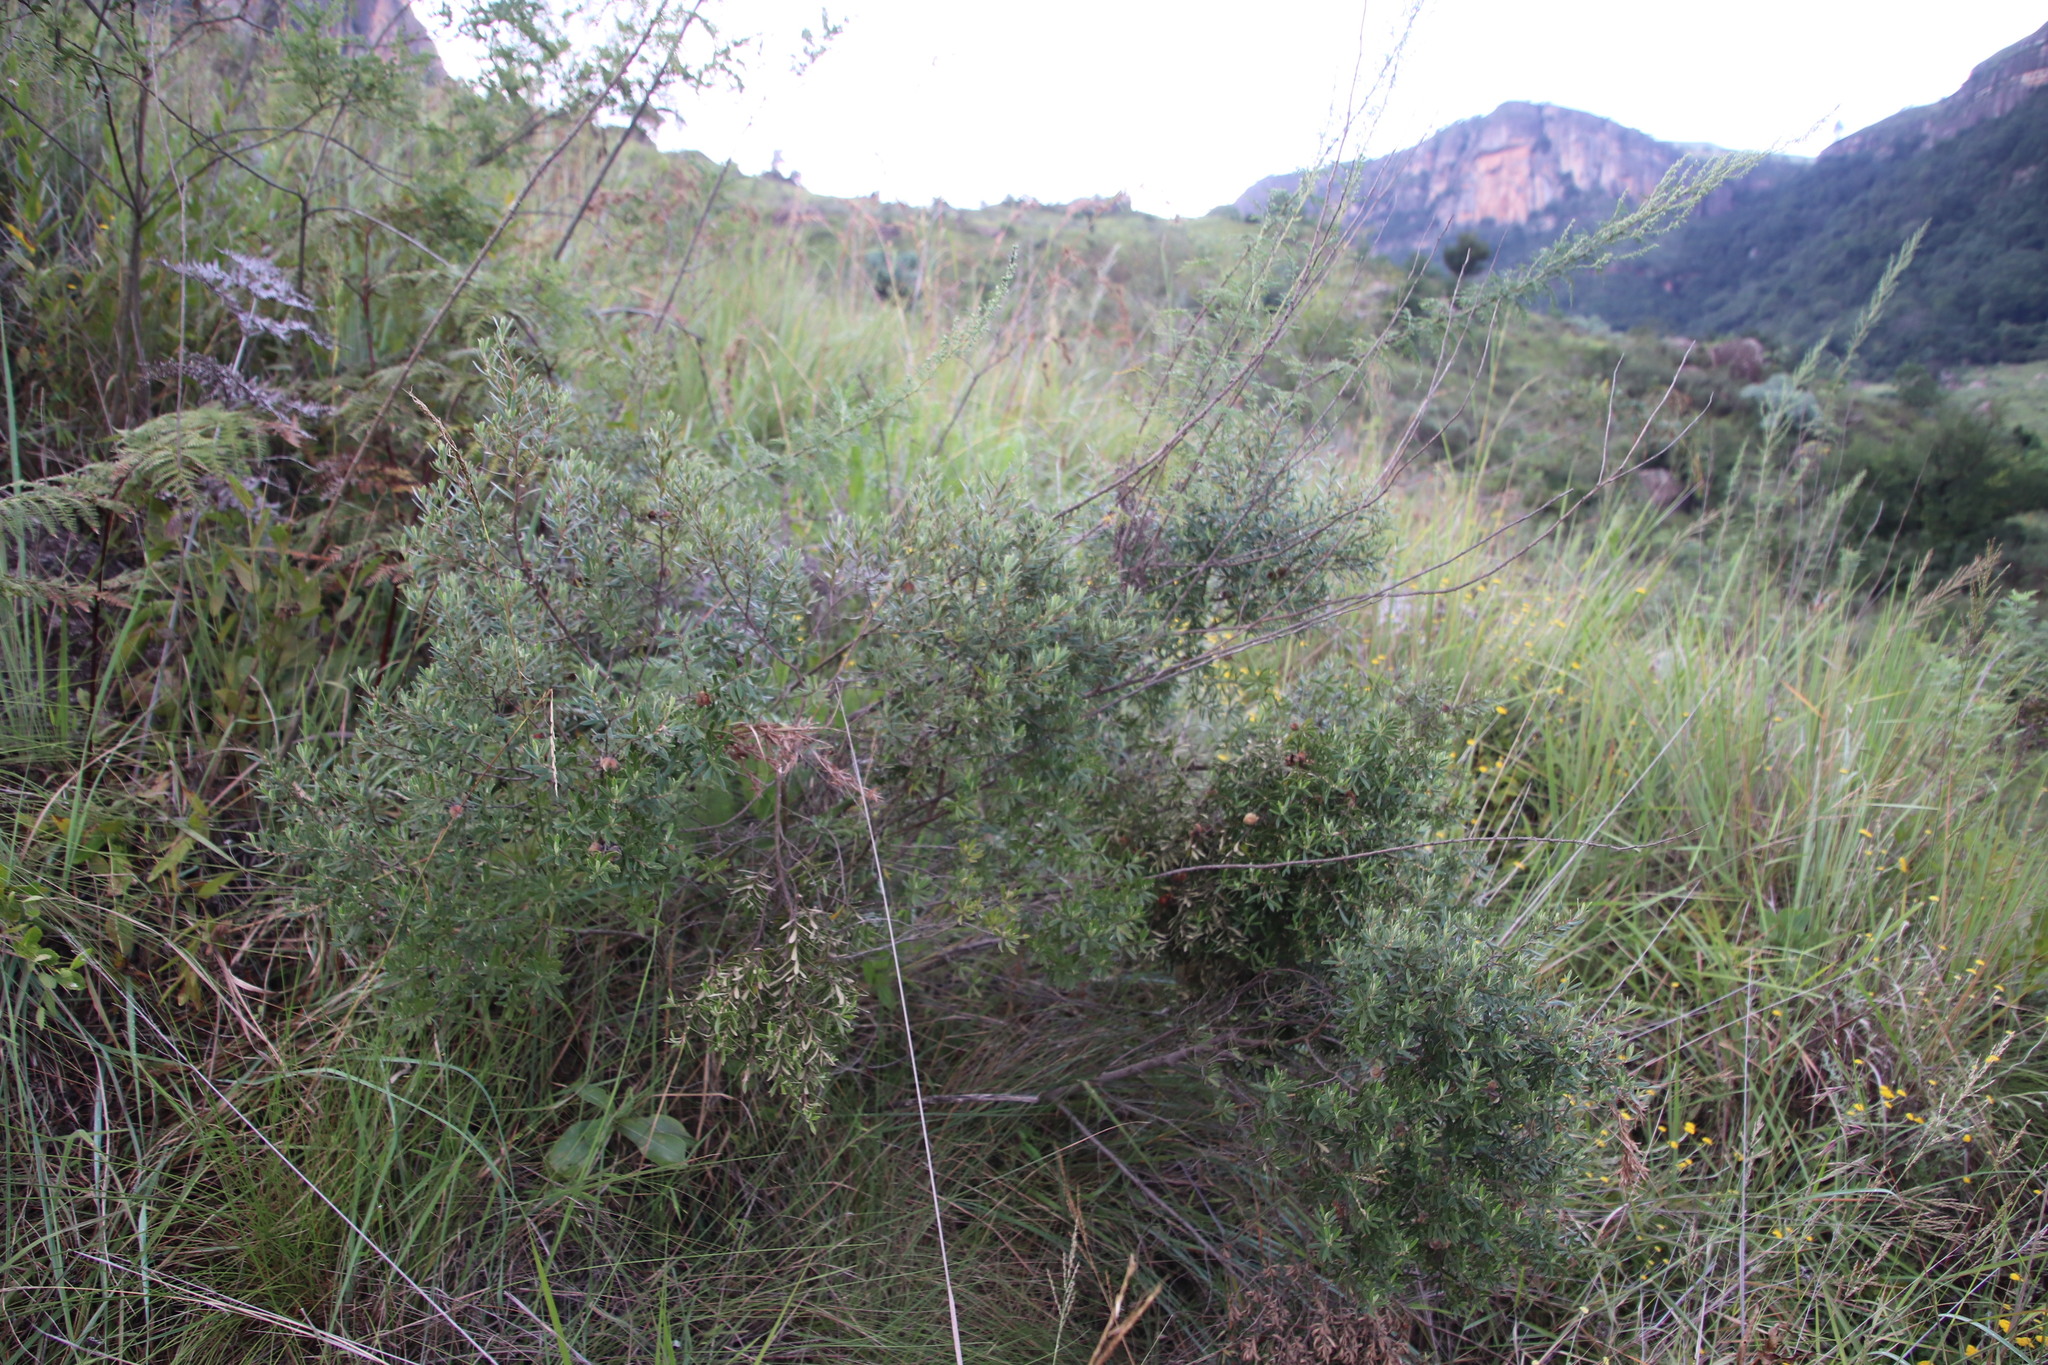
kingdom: Plantae
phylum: Tracheophyta
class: Magnoliopsida
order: Ericales
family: Ebenaceae
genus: Diospyros
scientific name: Diospyros pubescens
